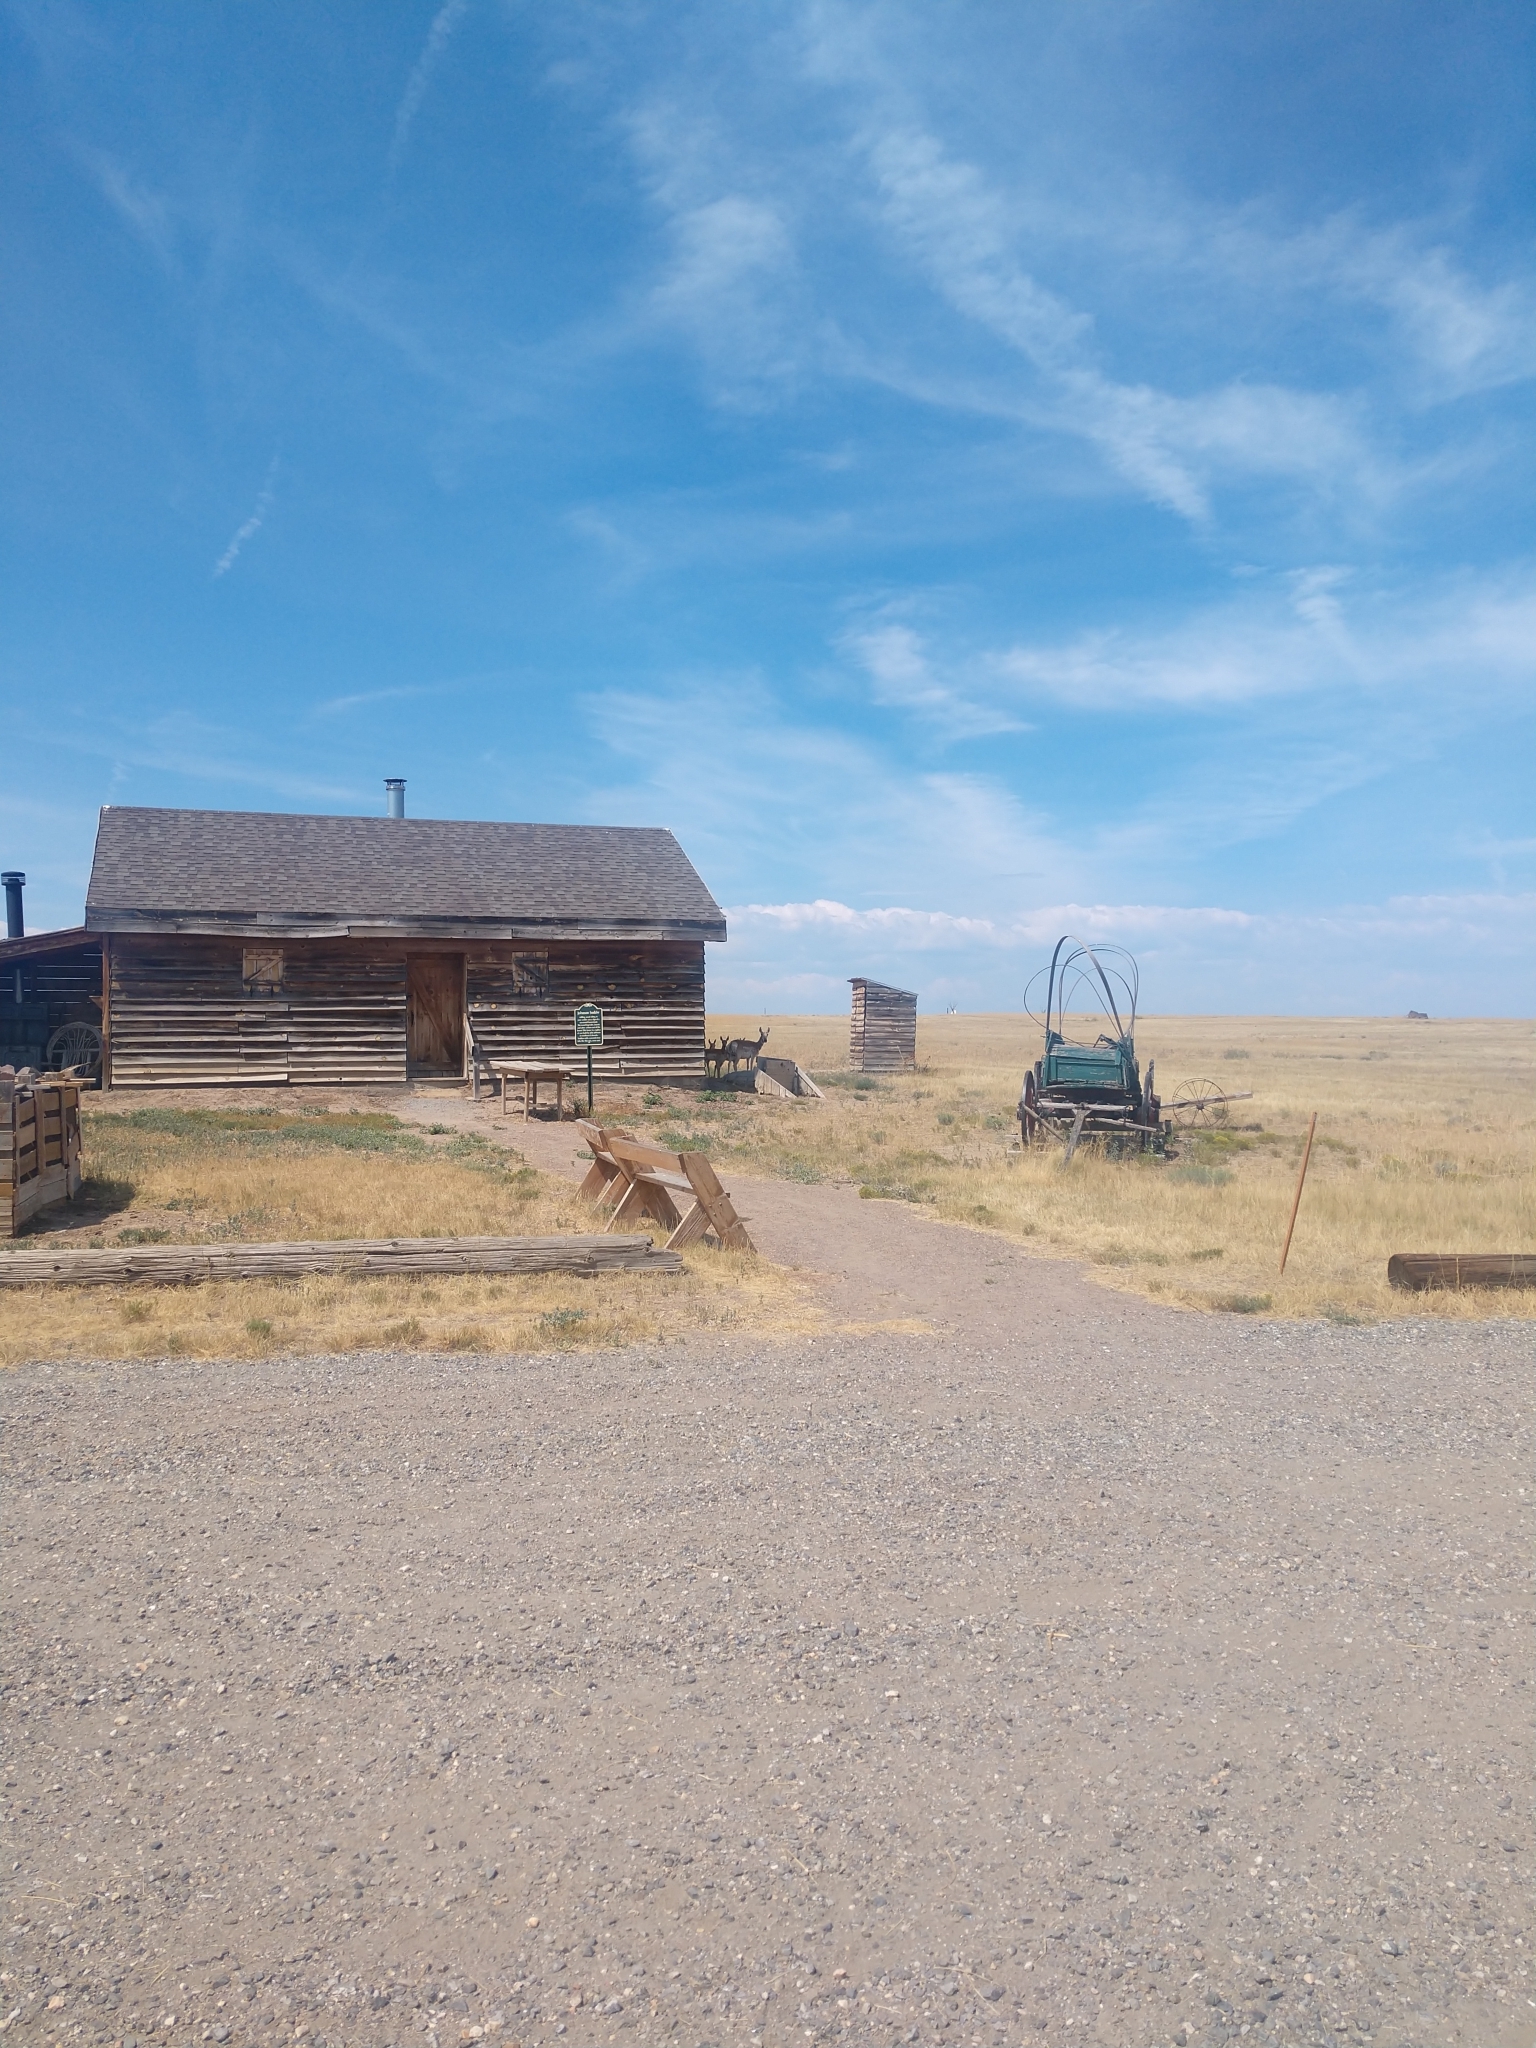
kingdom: Animalia
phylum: Chordata
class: Mammalia
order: Artiodactyla
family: Antilocapridae
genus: Antilocapra
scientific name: Antilocapra americana
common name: Pronghorn
